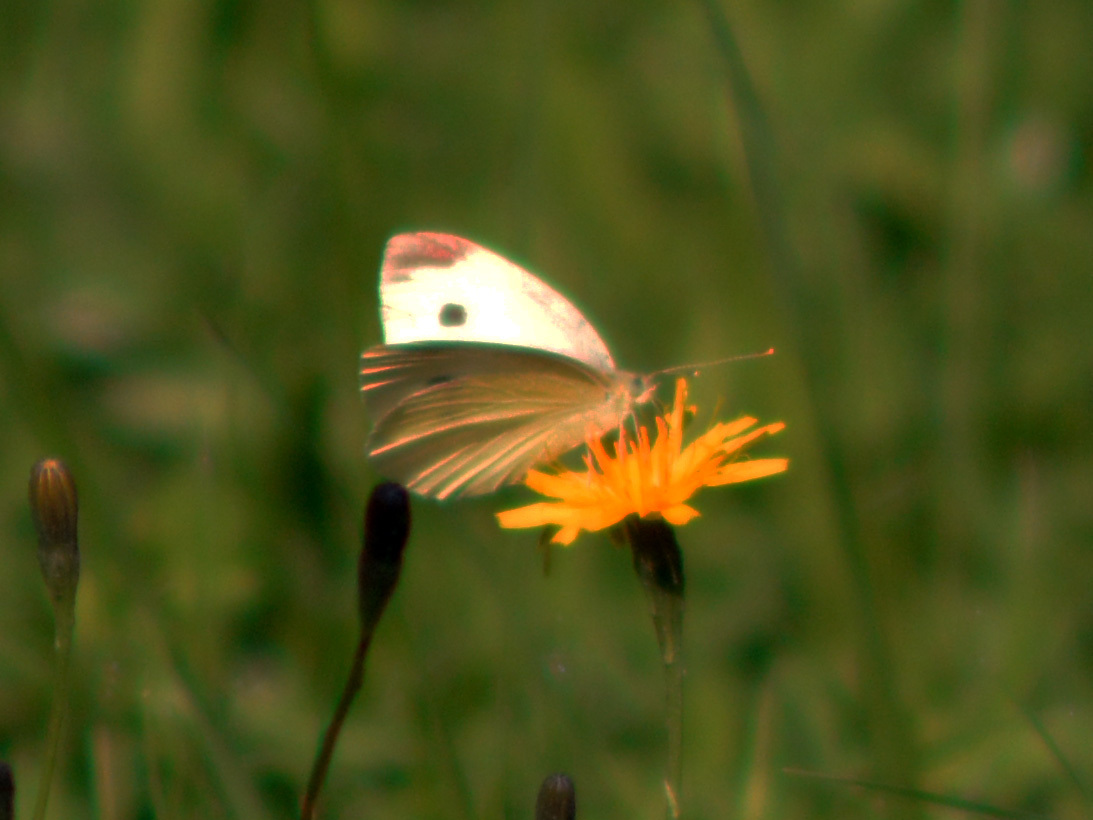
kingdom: Animalia
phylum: Arthropoda
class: Insecta
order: Lepidoptera
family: Pieridae
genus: Pieris
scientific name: Pieris rapae
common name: Small white
